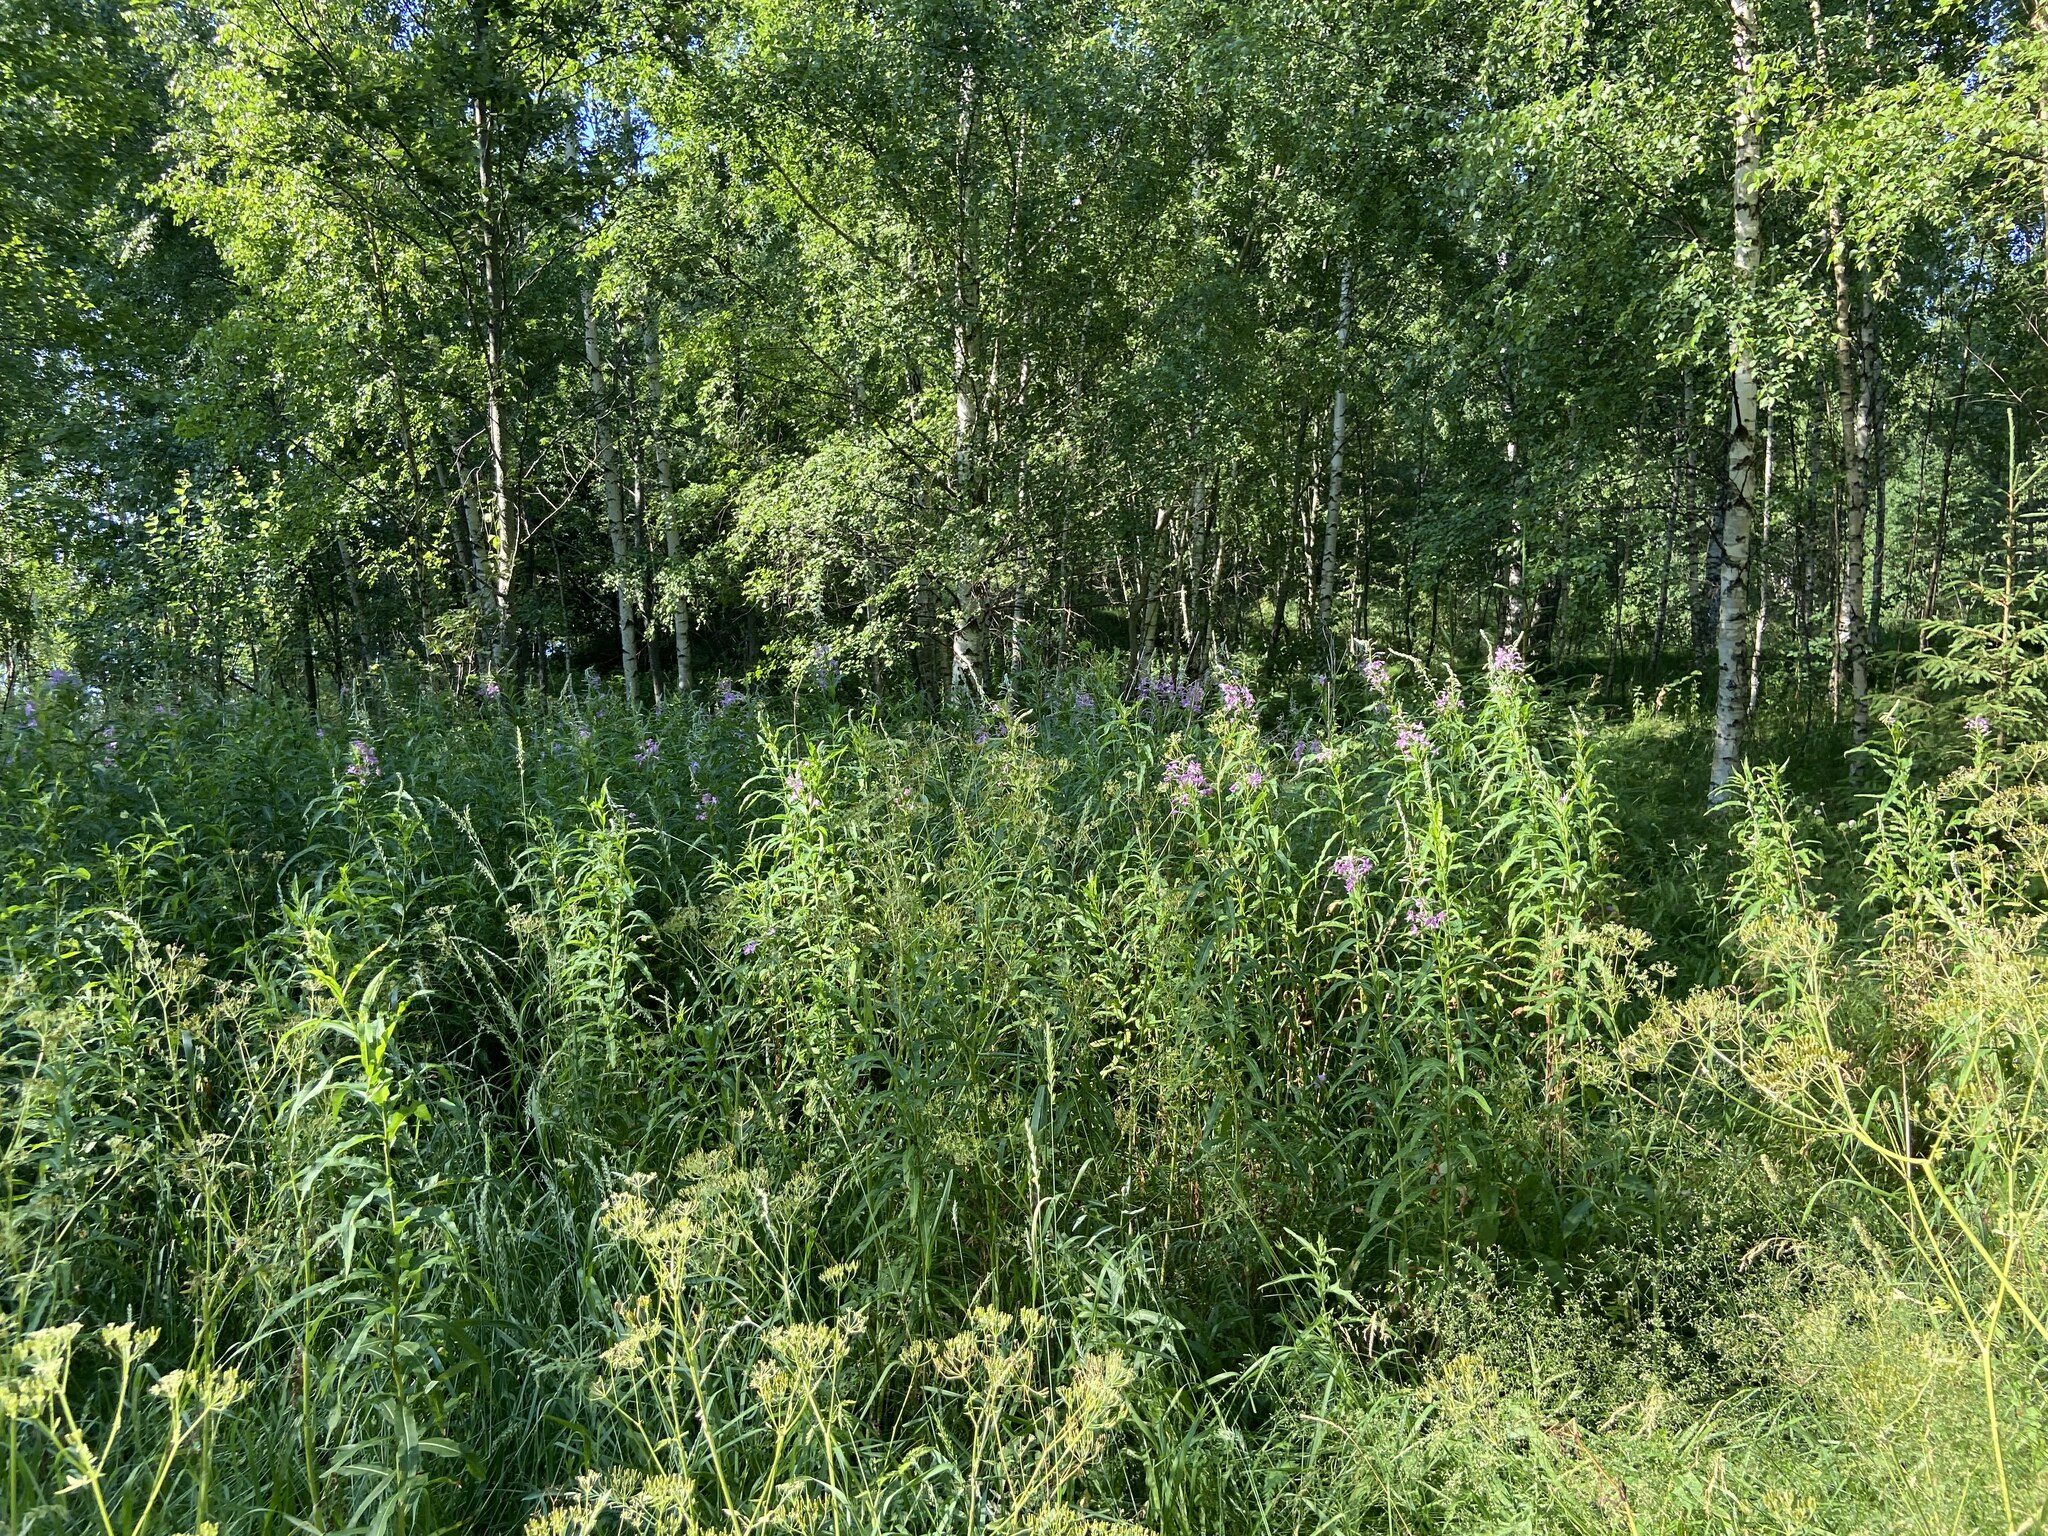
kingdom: Plantae
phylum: Tracheophyta
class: Magnoliopsida
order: Myrtales
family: Onagraceae
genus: Chamaenerion
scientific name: Chamaenerion angustifolium
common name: Fireweed
